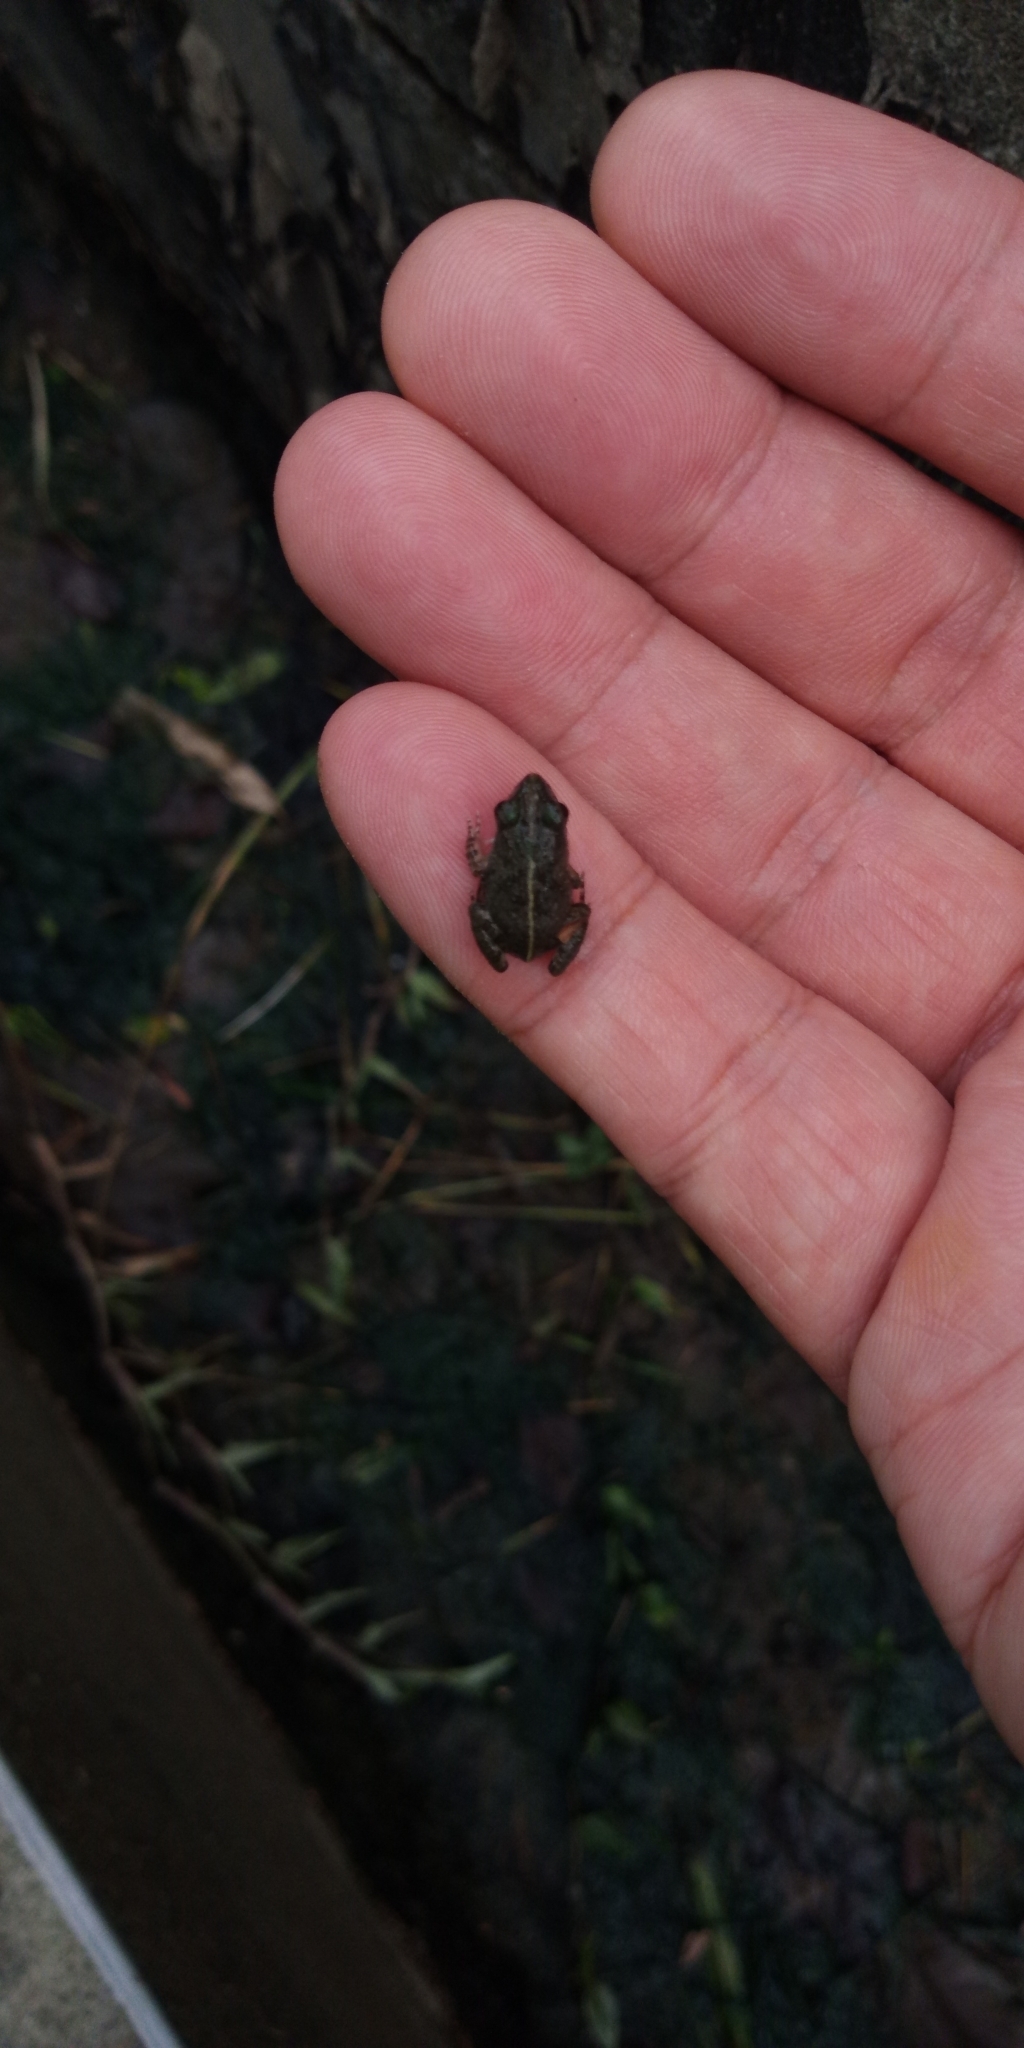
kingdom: Animalia
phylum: Chordata
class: Amphibia
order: Anura
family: Dicroglossidae
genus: Fejervarya
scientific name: Fejervarya limnocharis
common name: Asian grass frog/common pond frog/field frog/grass frog/indian rice frog
